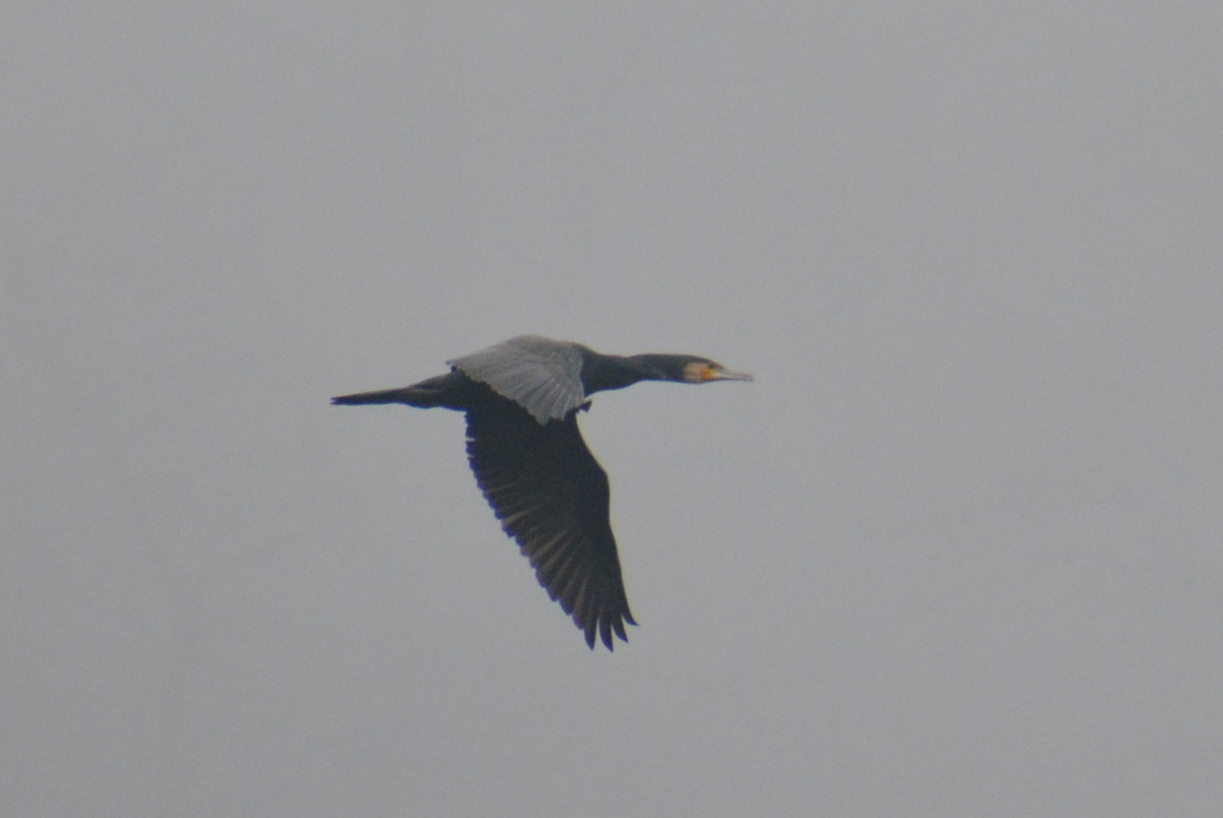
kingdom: Animalia
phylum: Chordata
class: Aves
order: Suliformes
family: Phalacrocoracidae
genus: Phalacrocorax
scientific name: Phalacrocorax carbo
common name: Great cormorant
